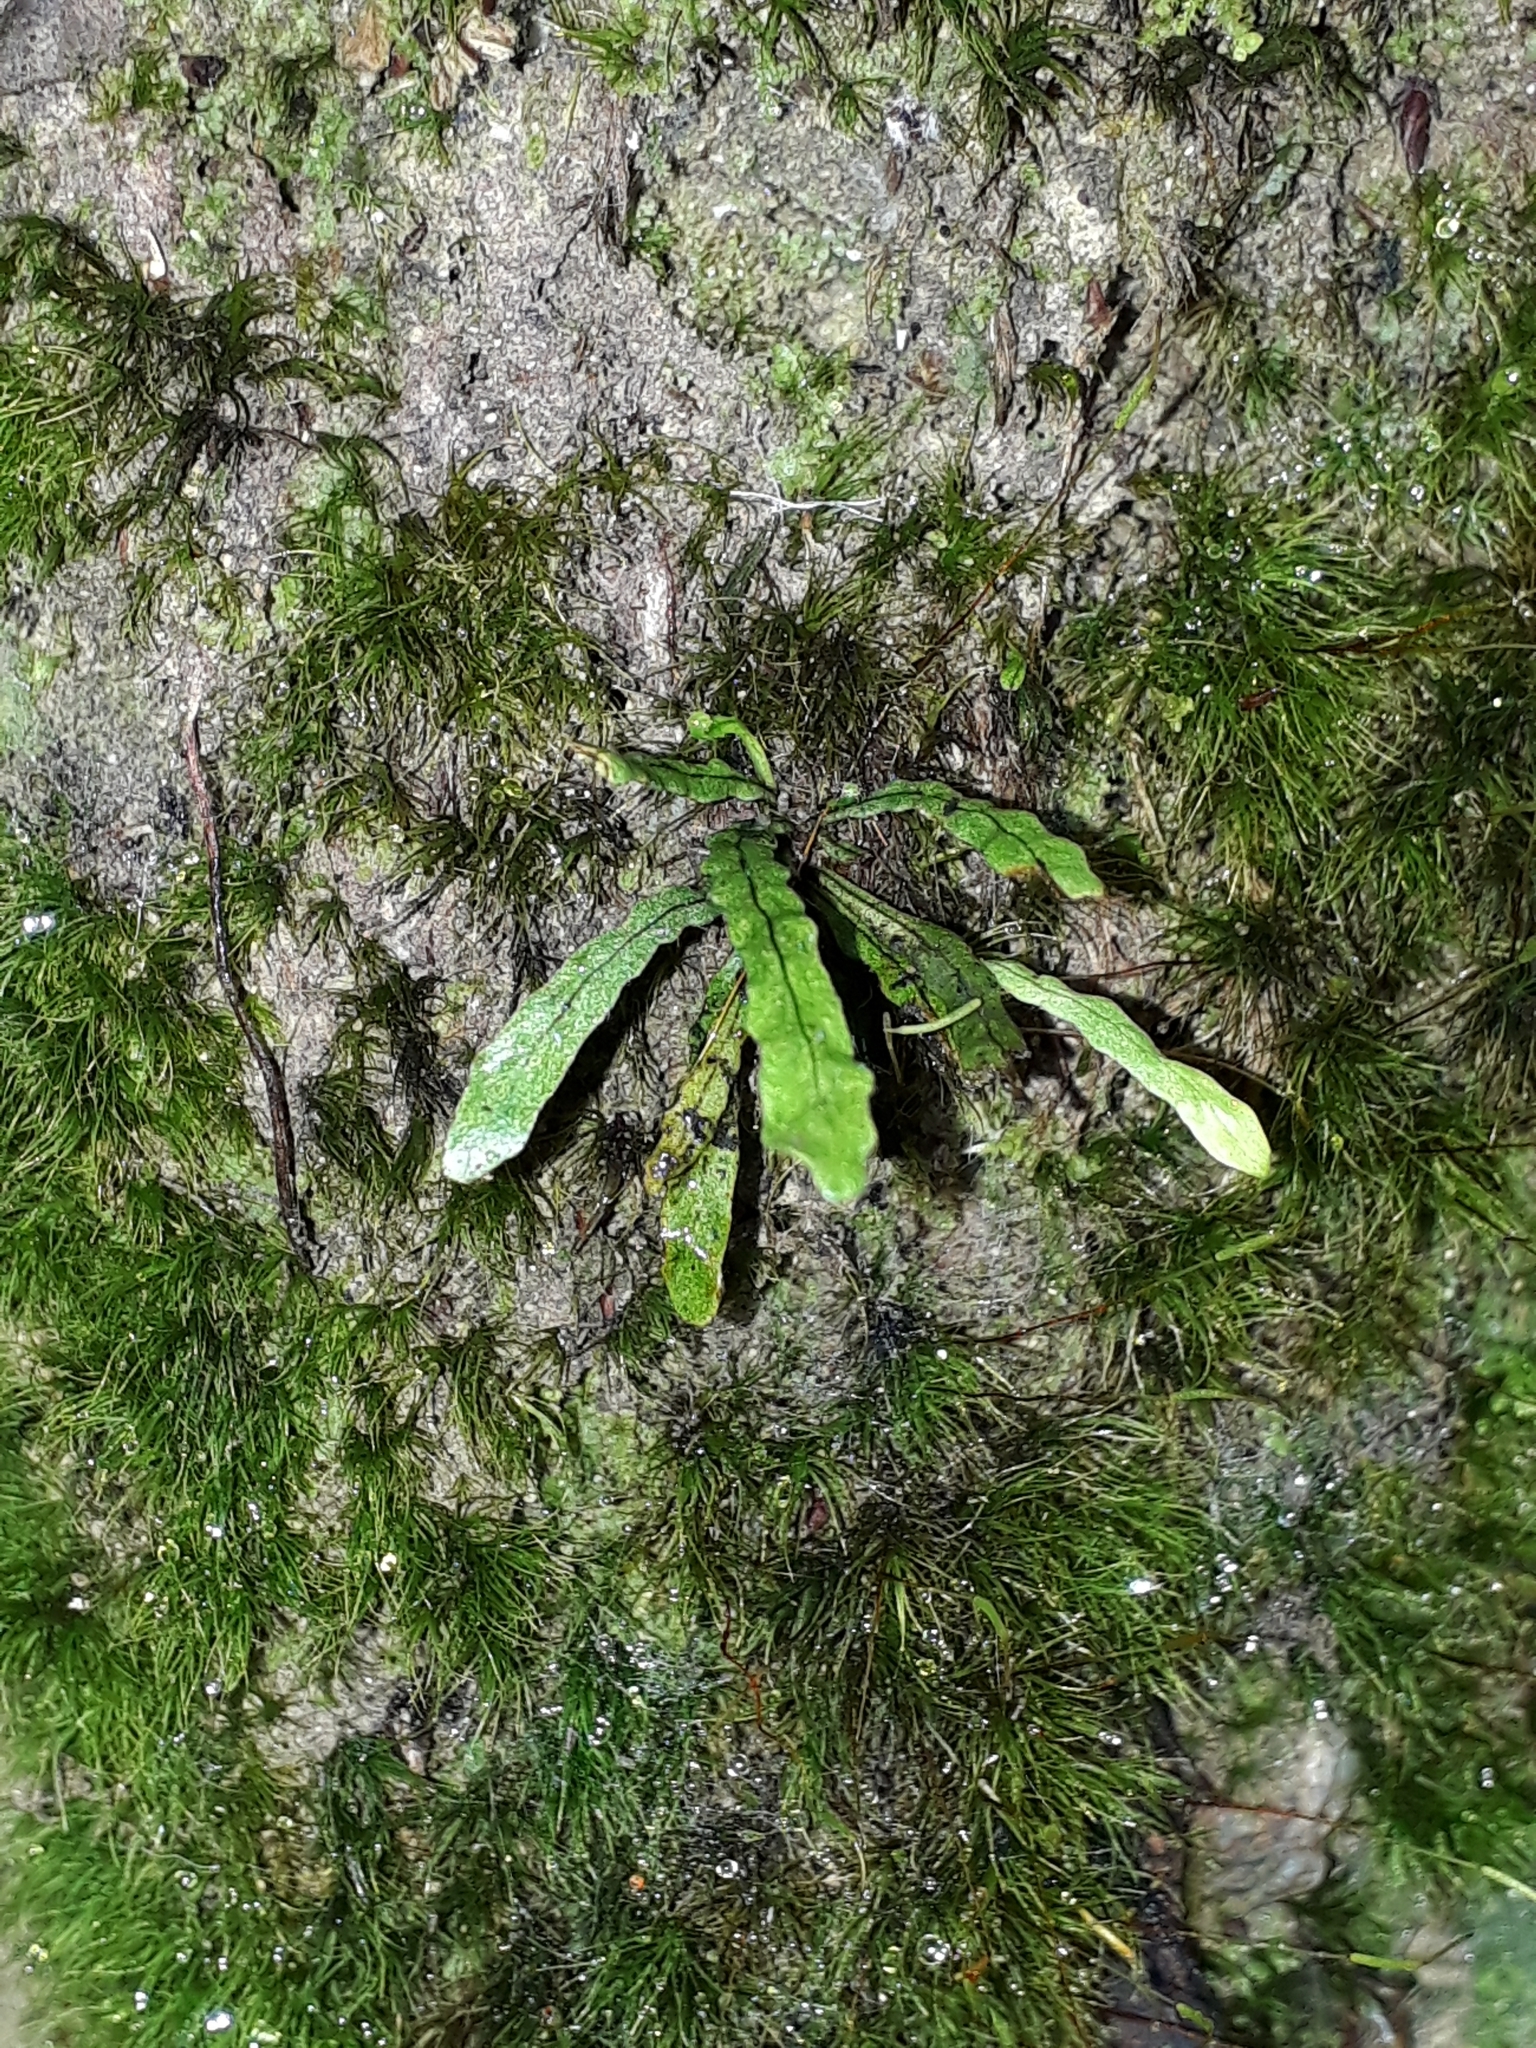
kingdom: Plantae
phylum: Tracheophyta
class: Polypodiopsida
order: Polypodiales
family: Polypodiaceae
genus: Notogrammitis
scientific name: Notogrammitis ciliata
